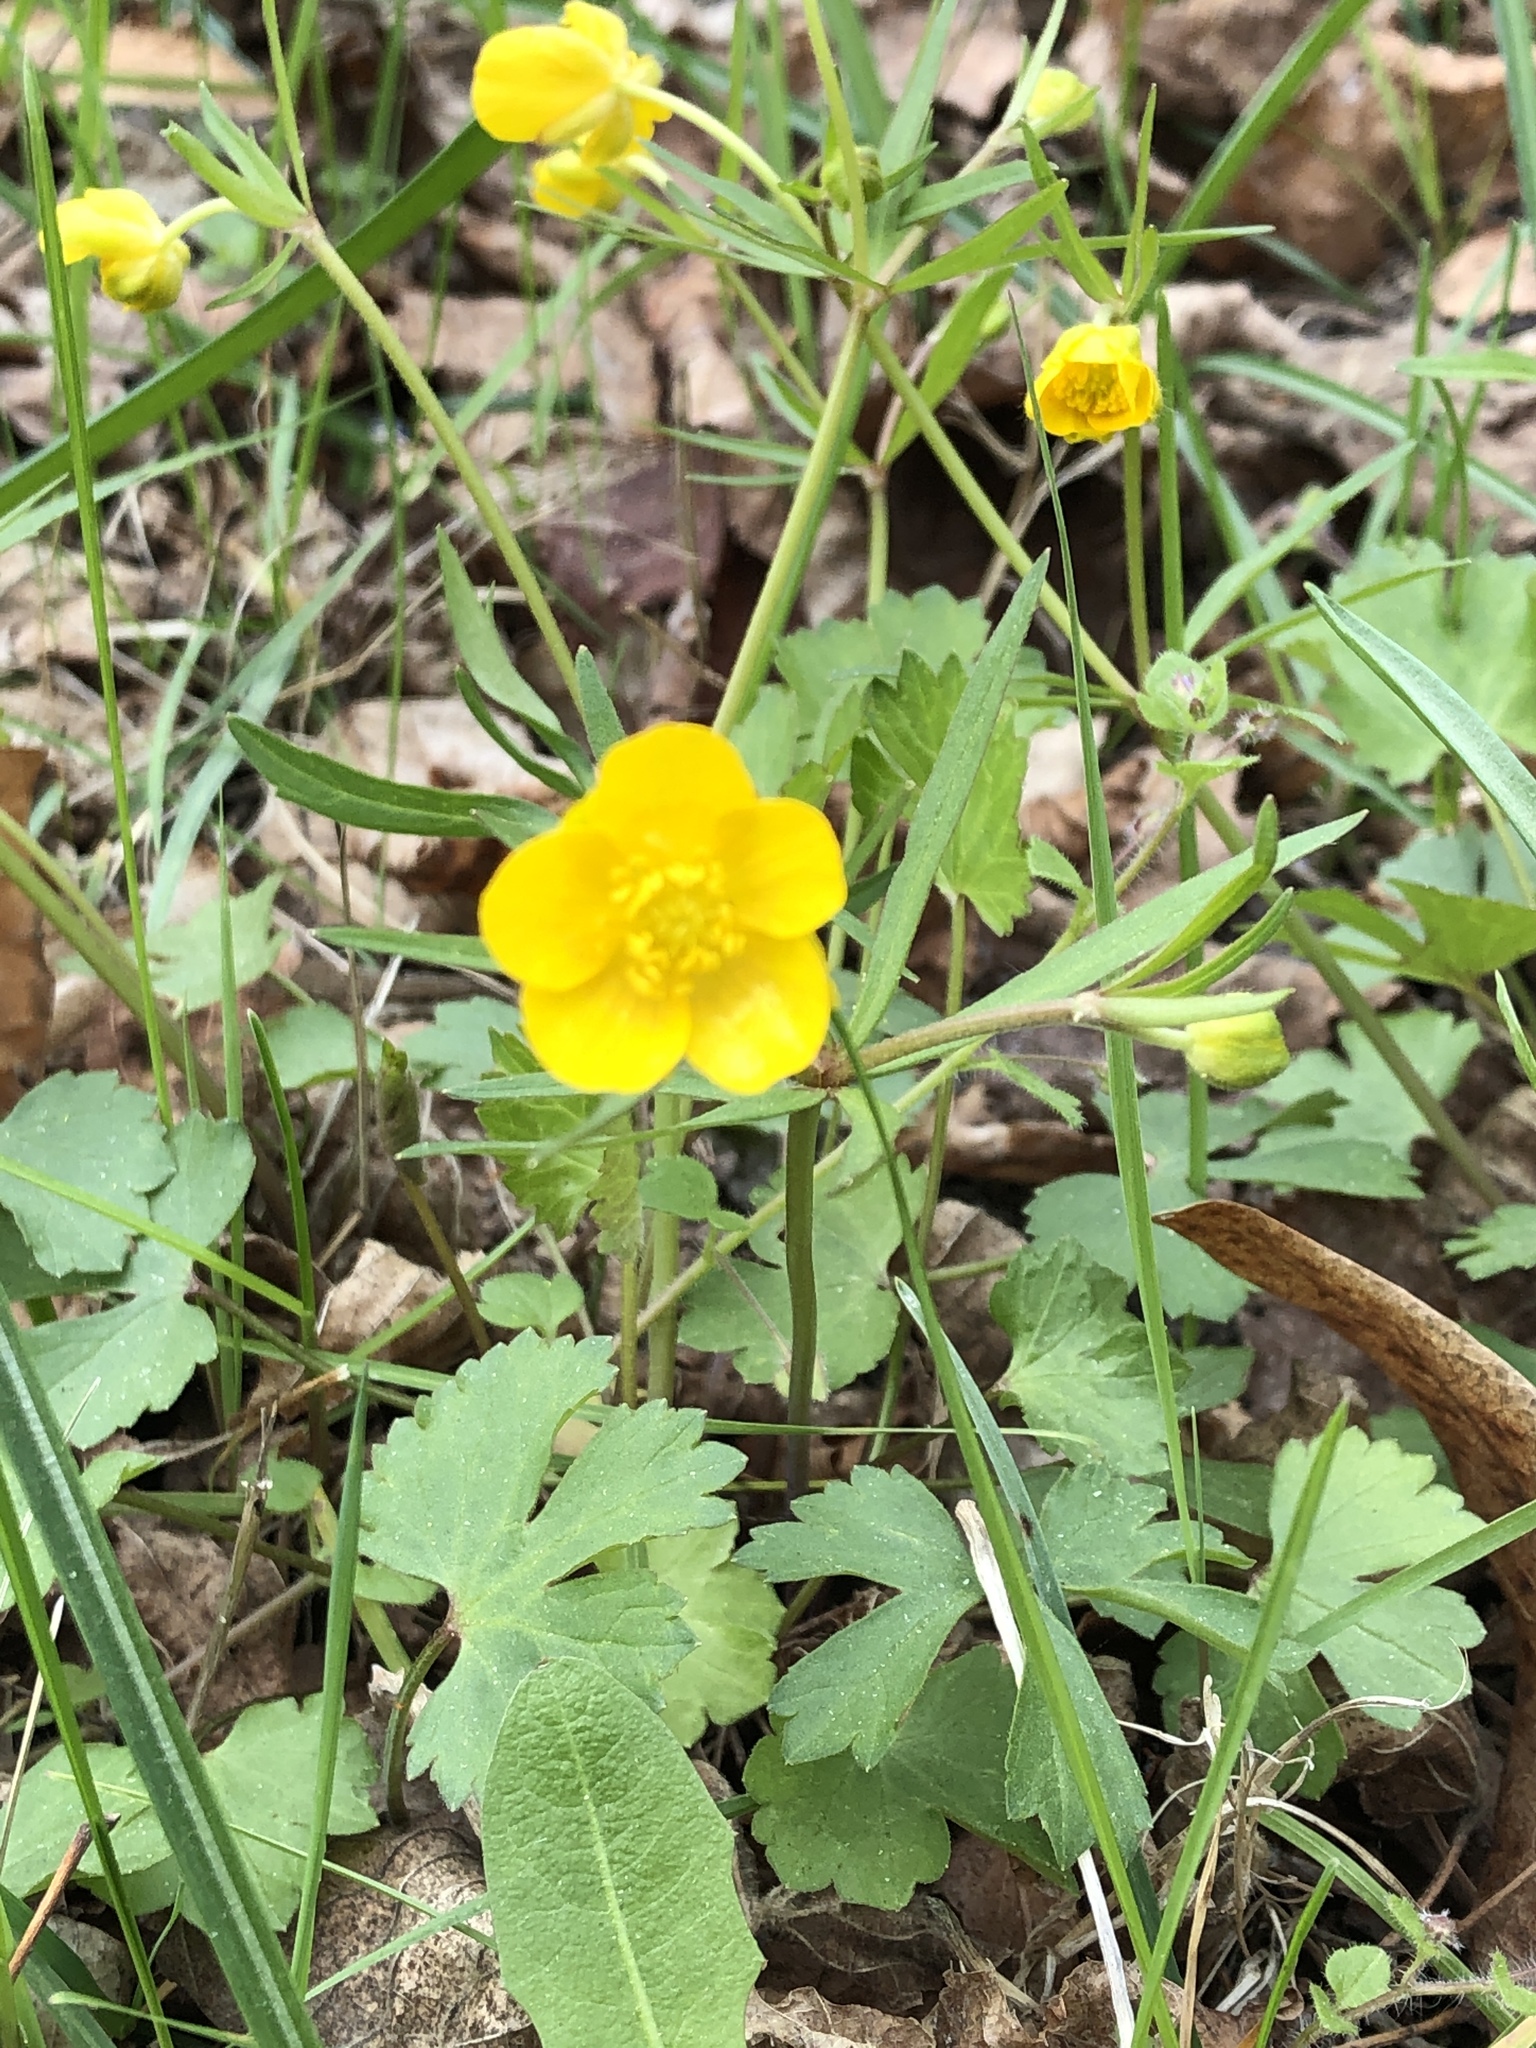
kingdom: Plantae
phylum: Tracheophyta
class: Magnoliopsida
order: Ranunculales
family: Ranunculaceae
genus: Ranunculus
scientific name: Ranunculus auricomus
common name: Goldilocks buttercup
